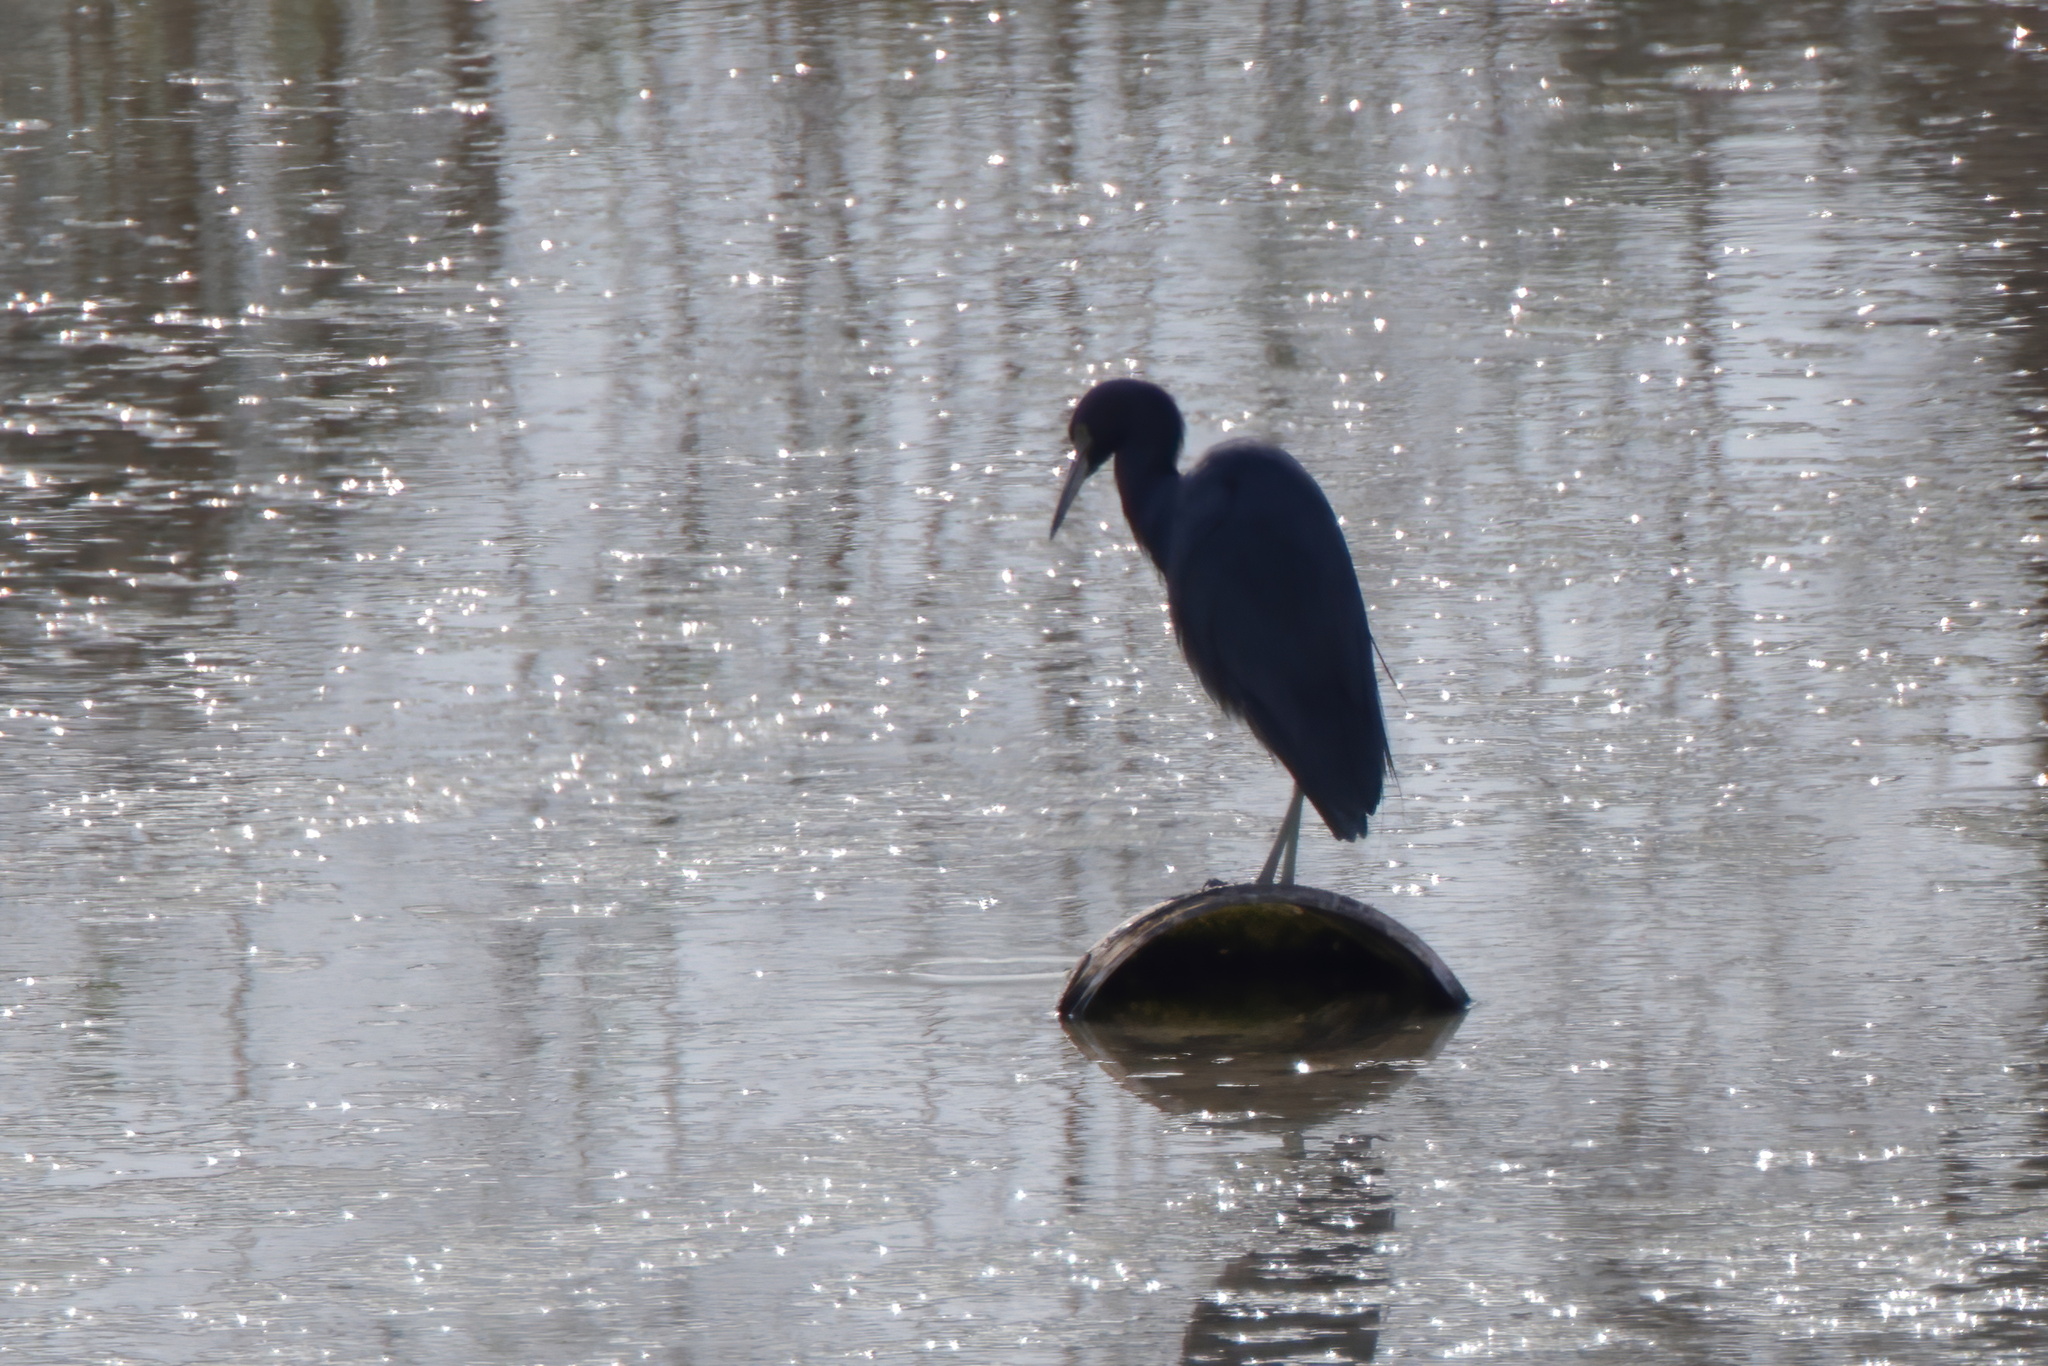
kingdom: Animalia
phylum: Chordata
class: Aves
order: Pelecaniformes
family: Ardeidae
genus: Egretta
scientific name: Egretta caerulea
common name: Little blue heron
